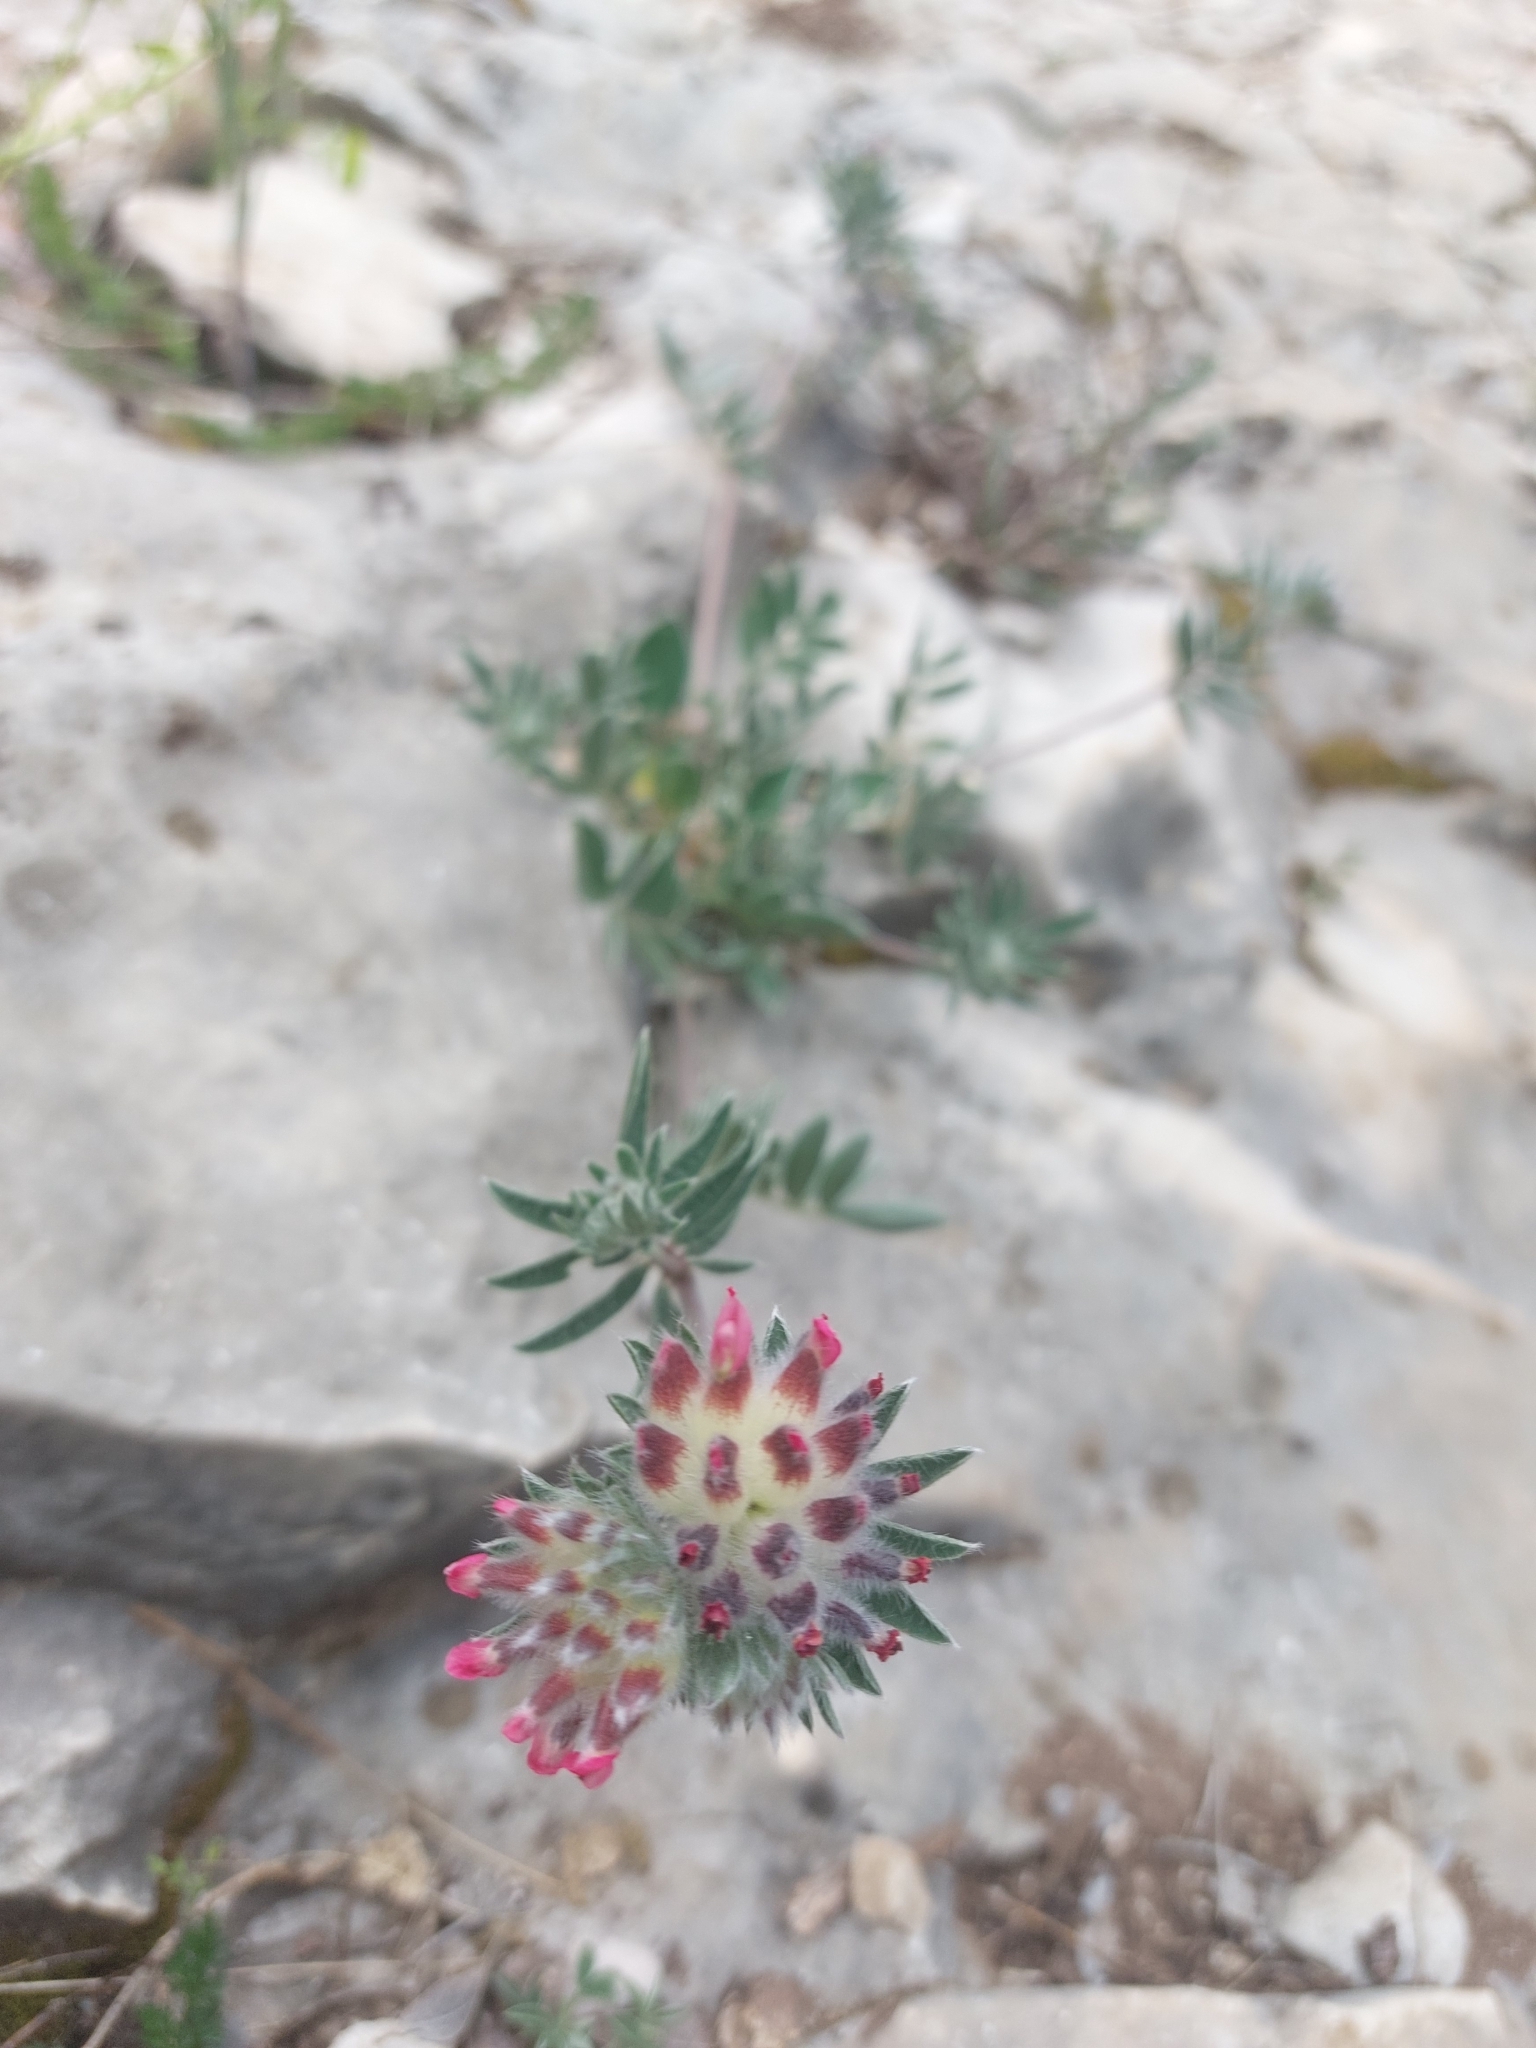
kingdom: Plantae
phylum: Tracheophyta
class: Magnoliopsida
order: Fabales
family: Fabaceae
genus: Anthyllis
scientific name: Anthyllis vulneraria
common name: Kidney vetch
